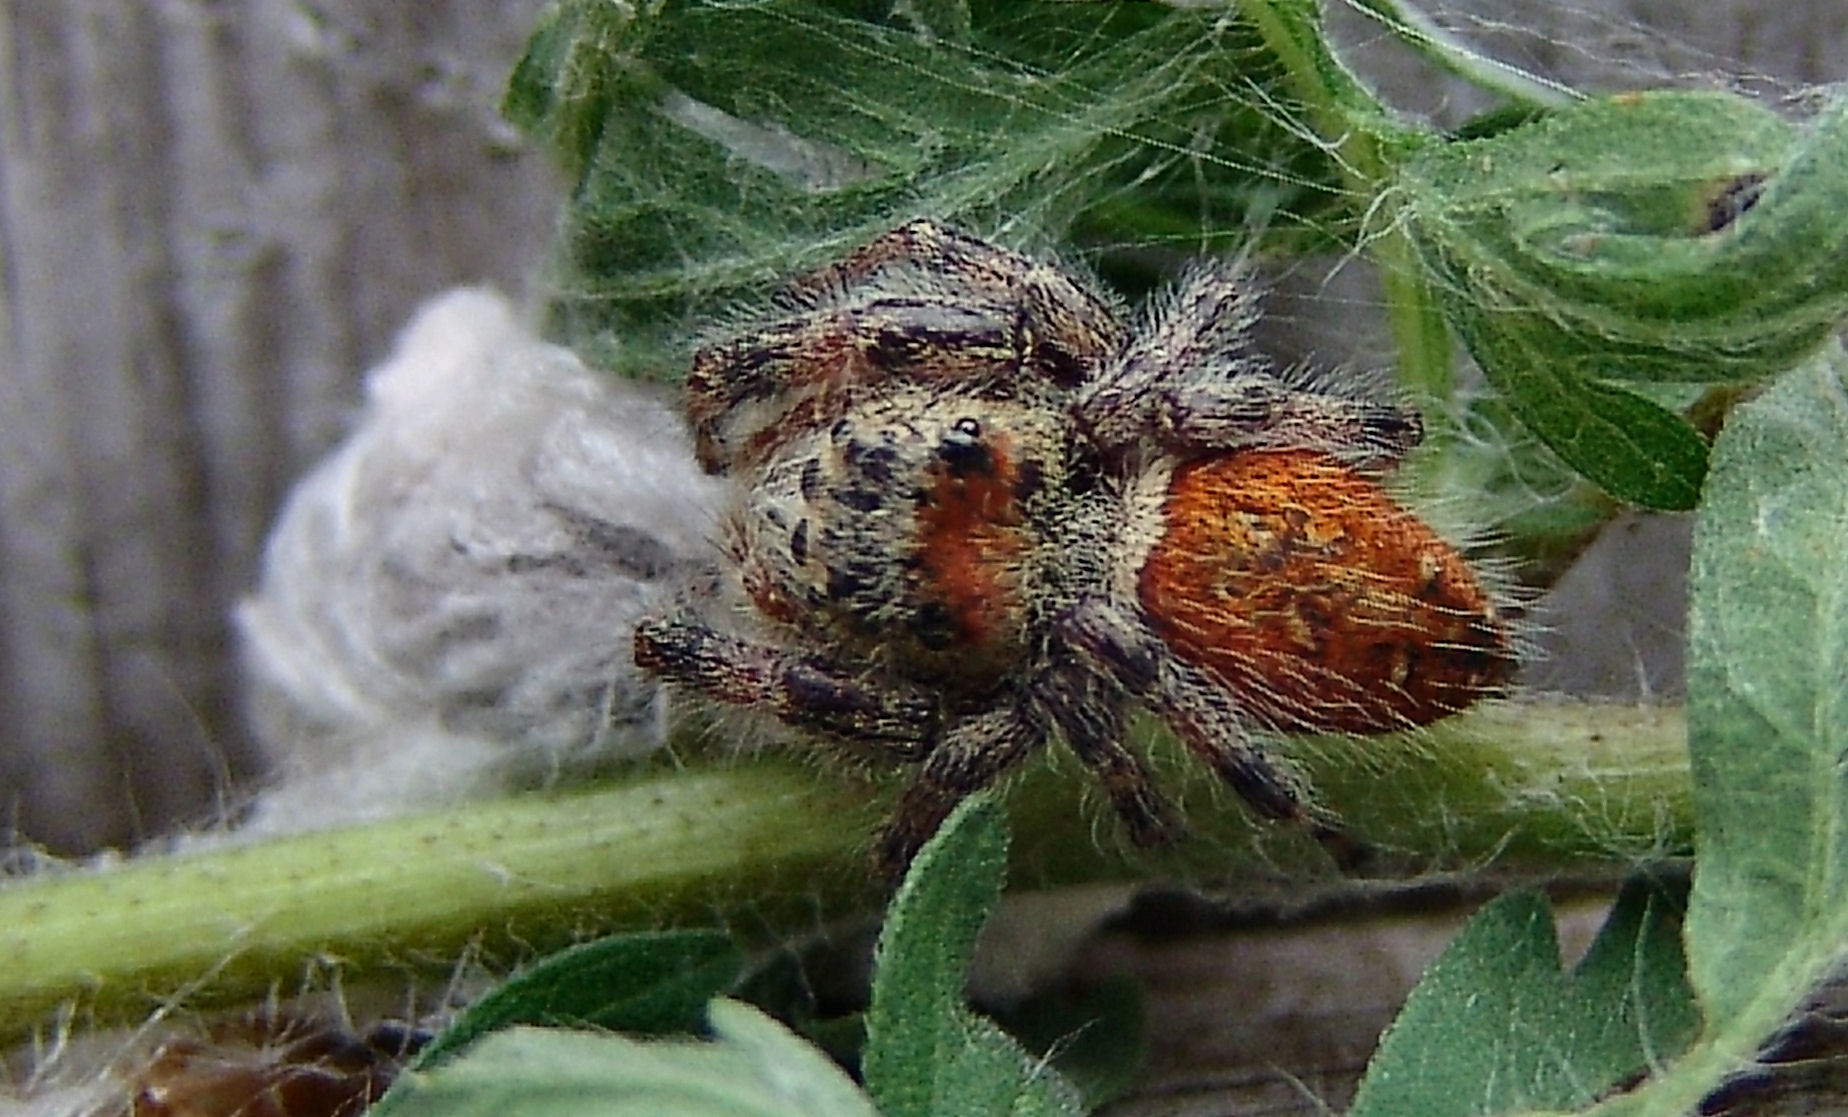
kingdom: Animalia
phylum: Arthropoda
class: Arachnida
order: Araneae
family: Salticidae
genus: Phidippus
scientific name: Phidippus clarus
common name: Brilliant jumping spider
